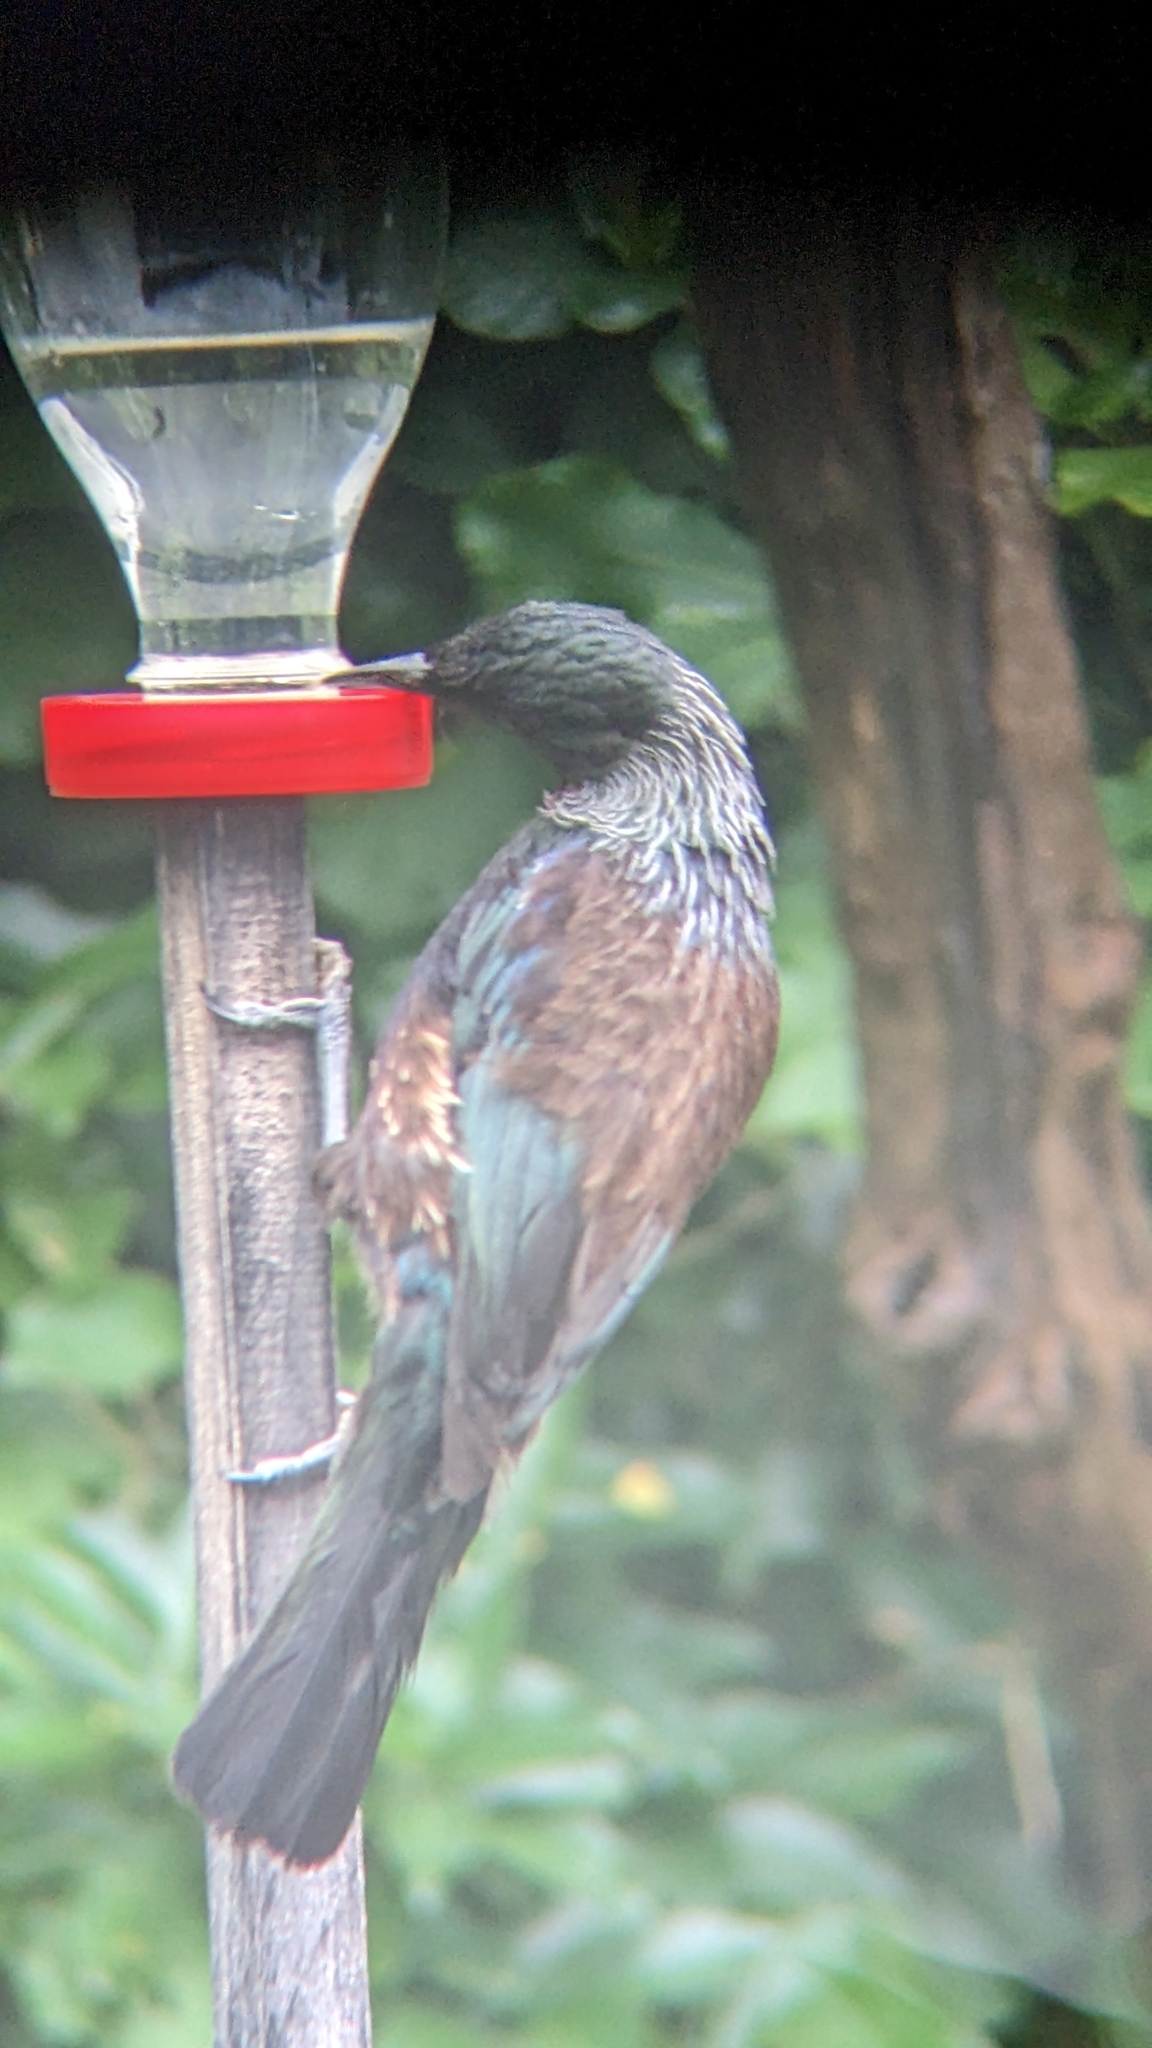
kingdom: Animalia
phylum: Chordata
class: Aves
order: Passeriformes
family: Meliphagidae
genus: Prosthemadera
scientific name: Prosthemadera novaeseelandiae
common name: Tui
